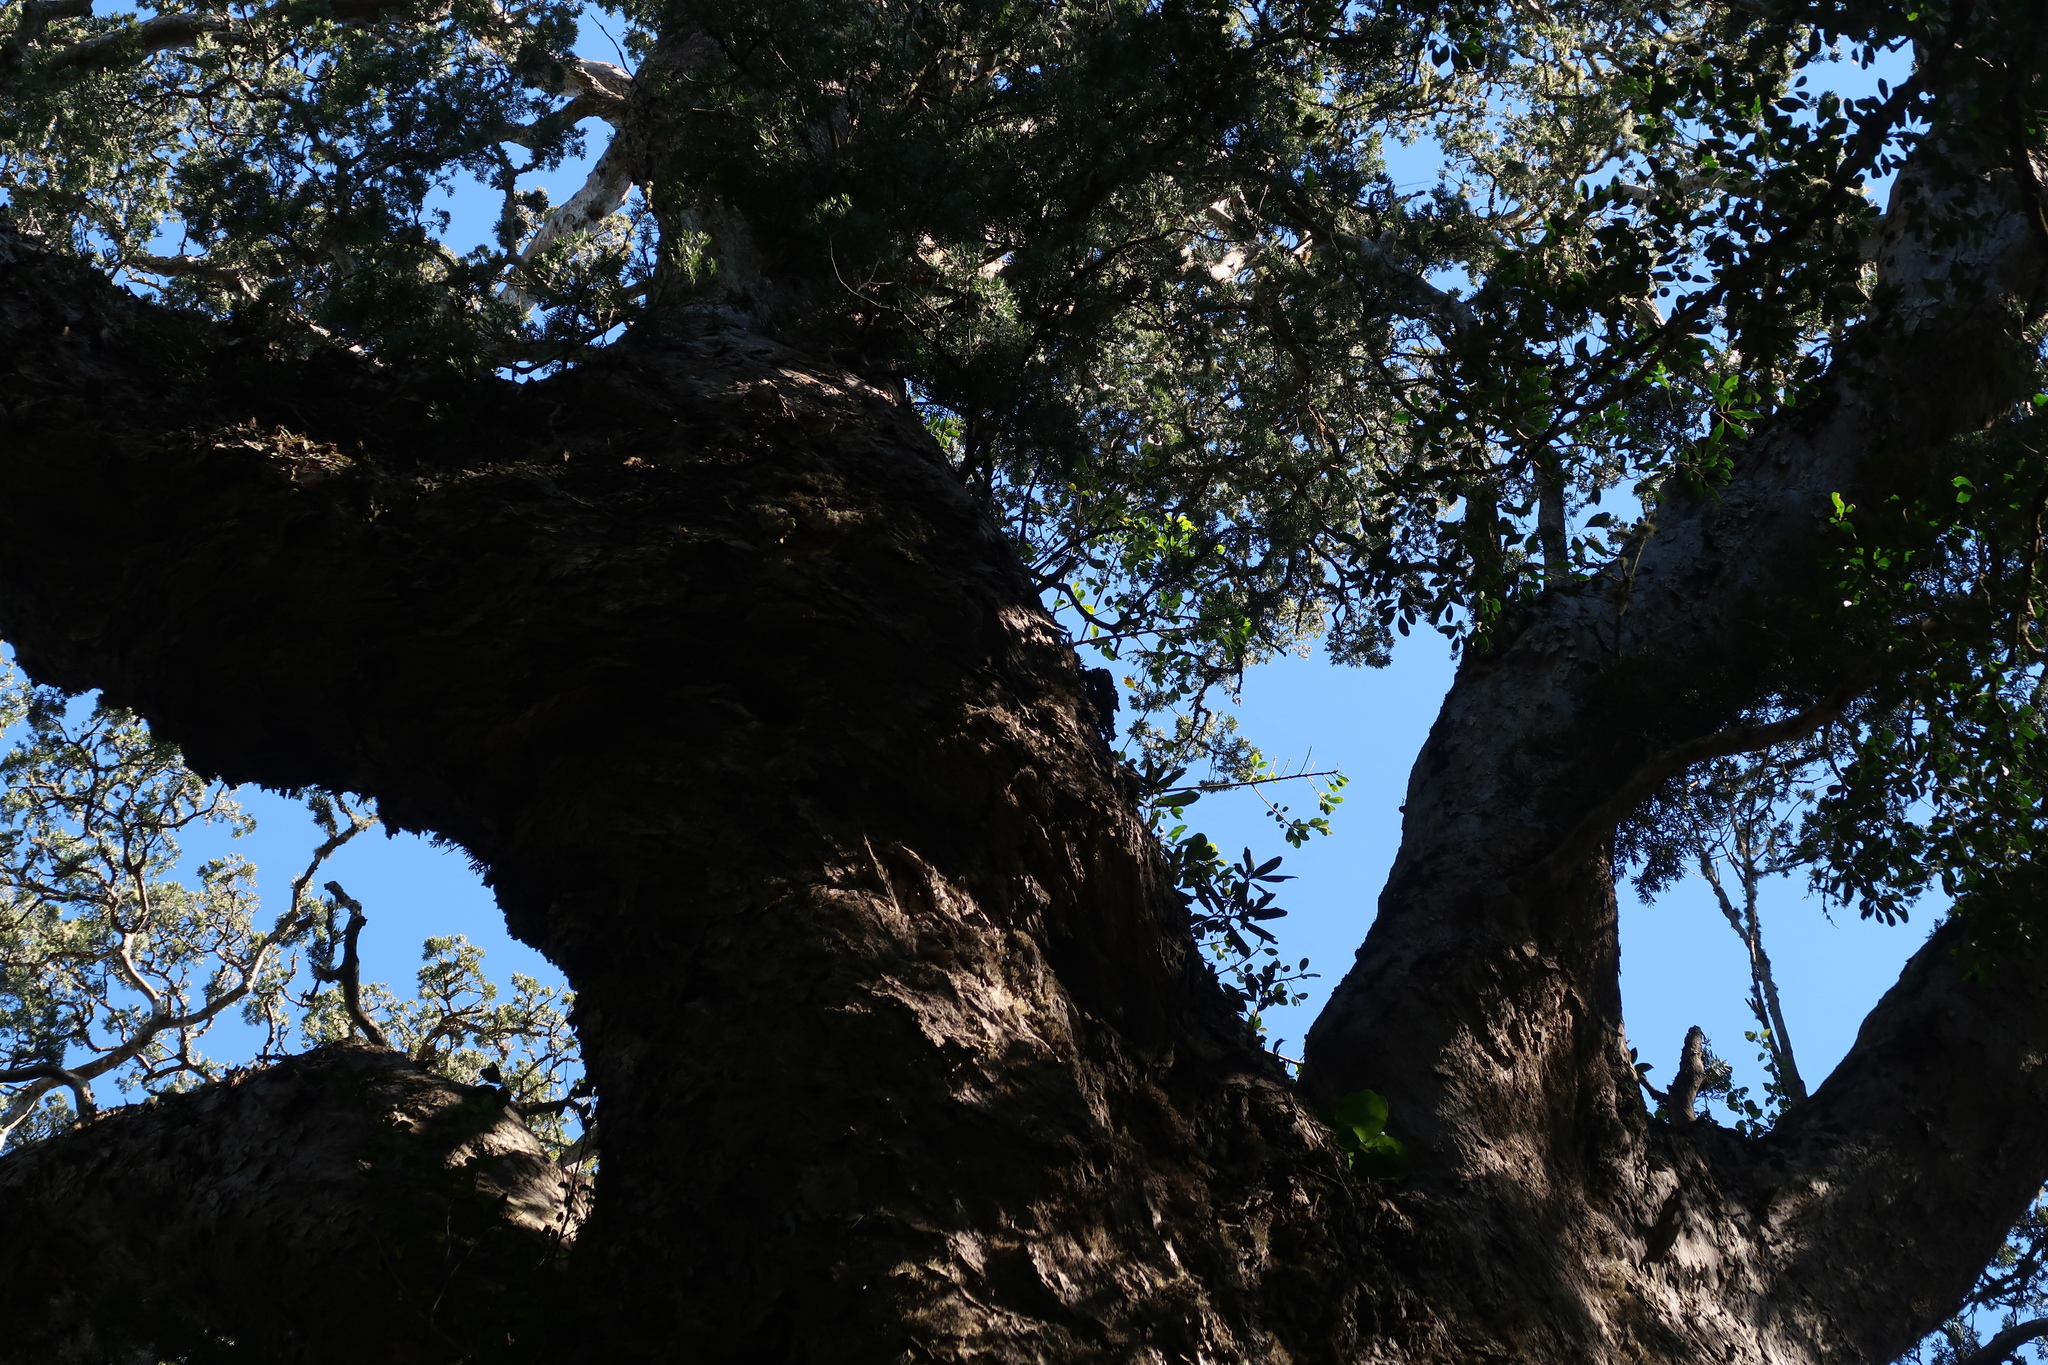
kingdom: Plantae
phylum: Tracheophyta
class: Pinopsida
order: Pinales
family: Podocarpaceae
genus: Afrocarpus
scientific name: Afrocarpus falcatus
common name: Bastard yellowwood
